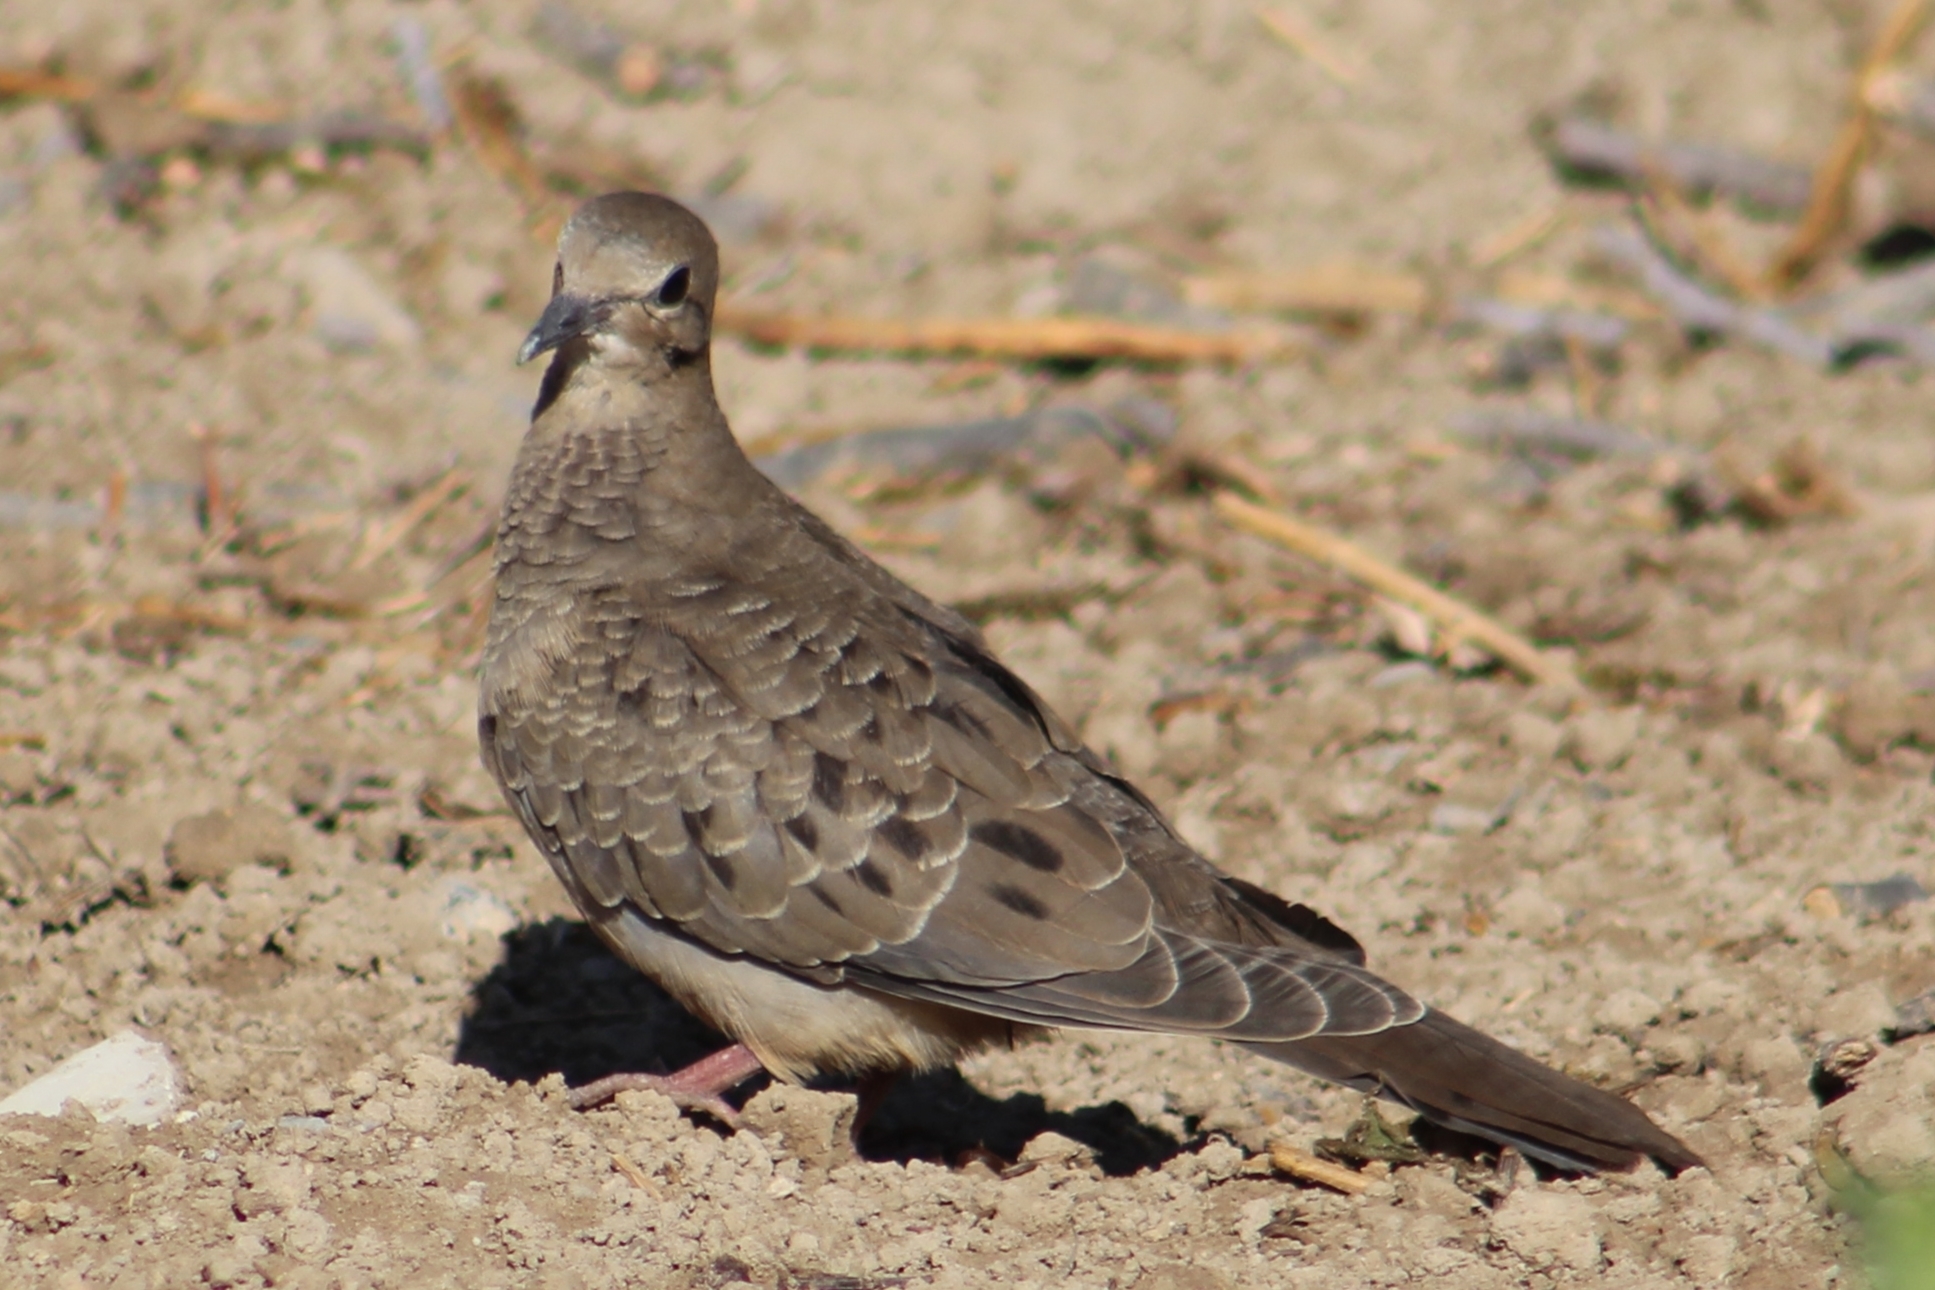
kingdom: Animalia
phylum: Chordata
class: Aves
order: Columbiformes
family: Columbidae
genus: Zenaida
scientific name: Zenaida macroura
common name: Mourning dove
